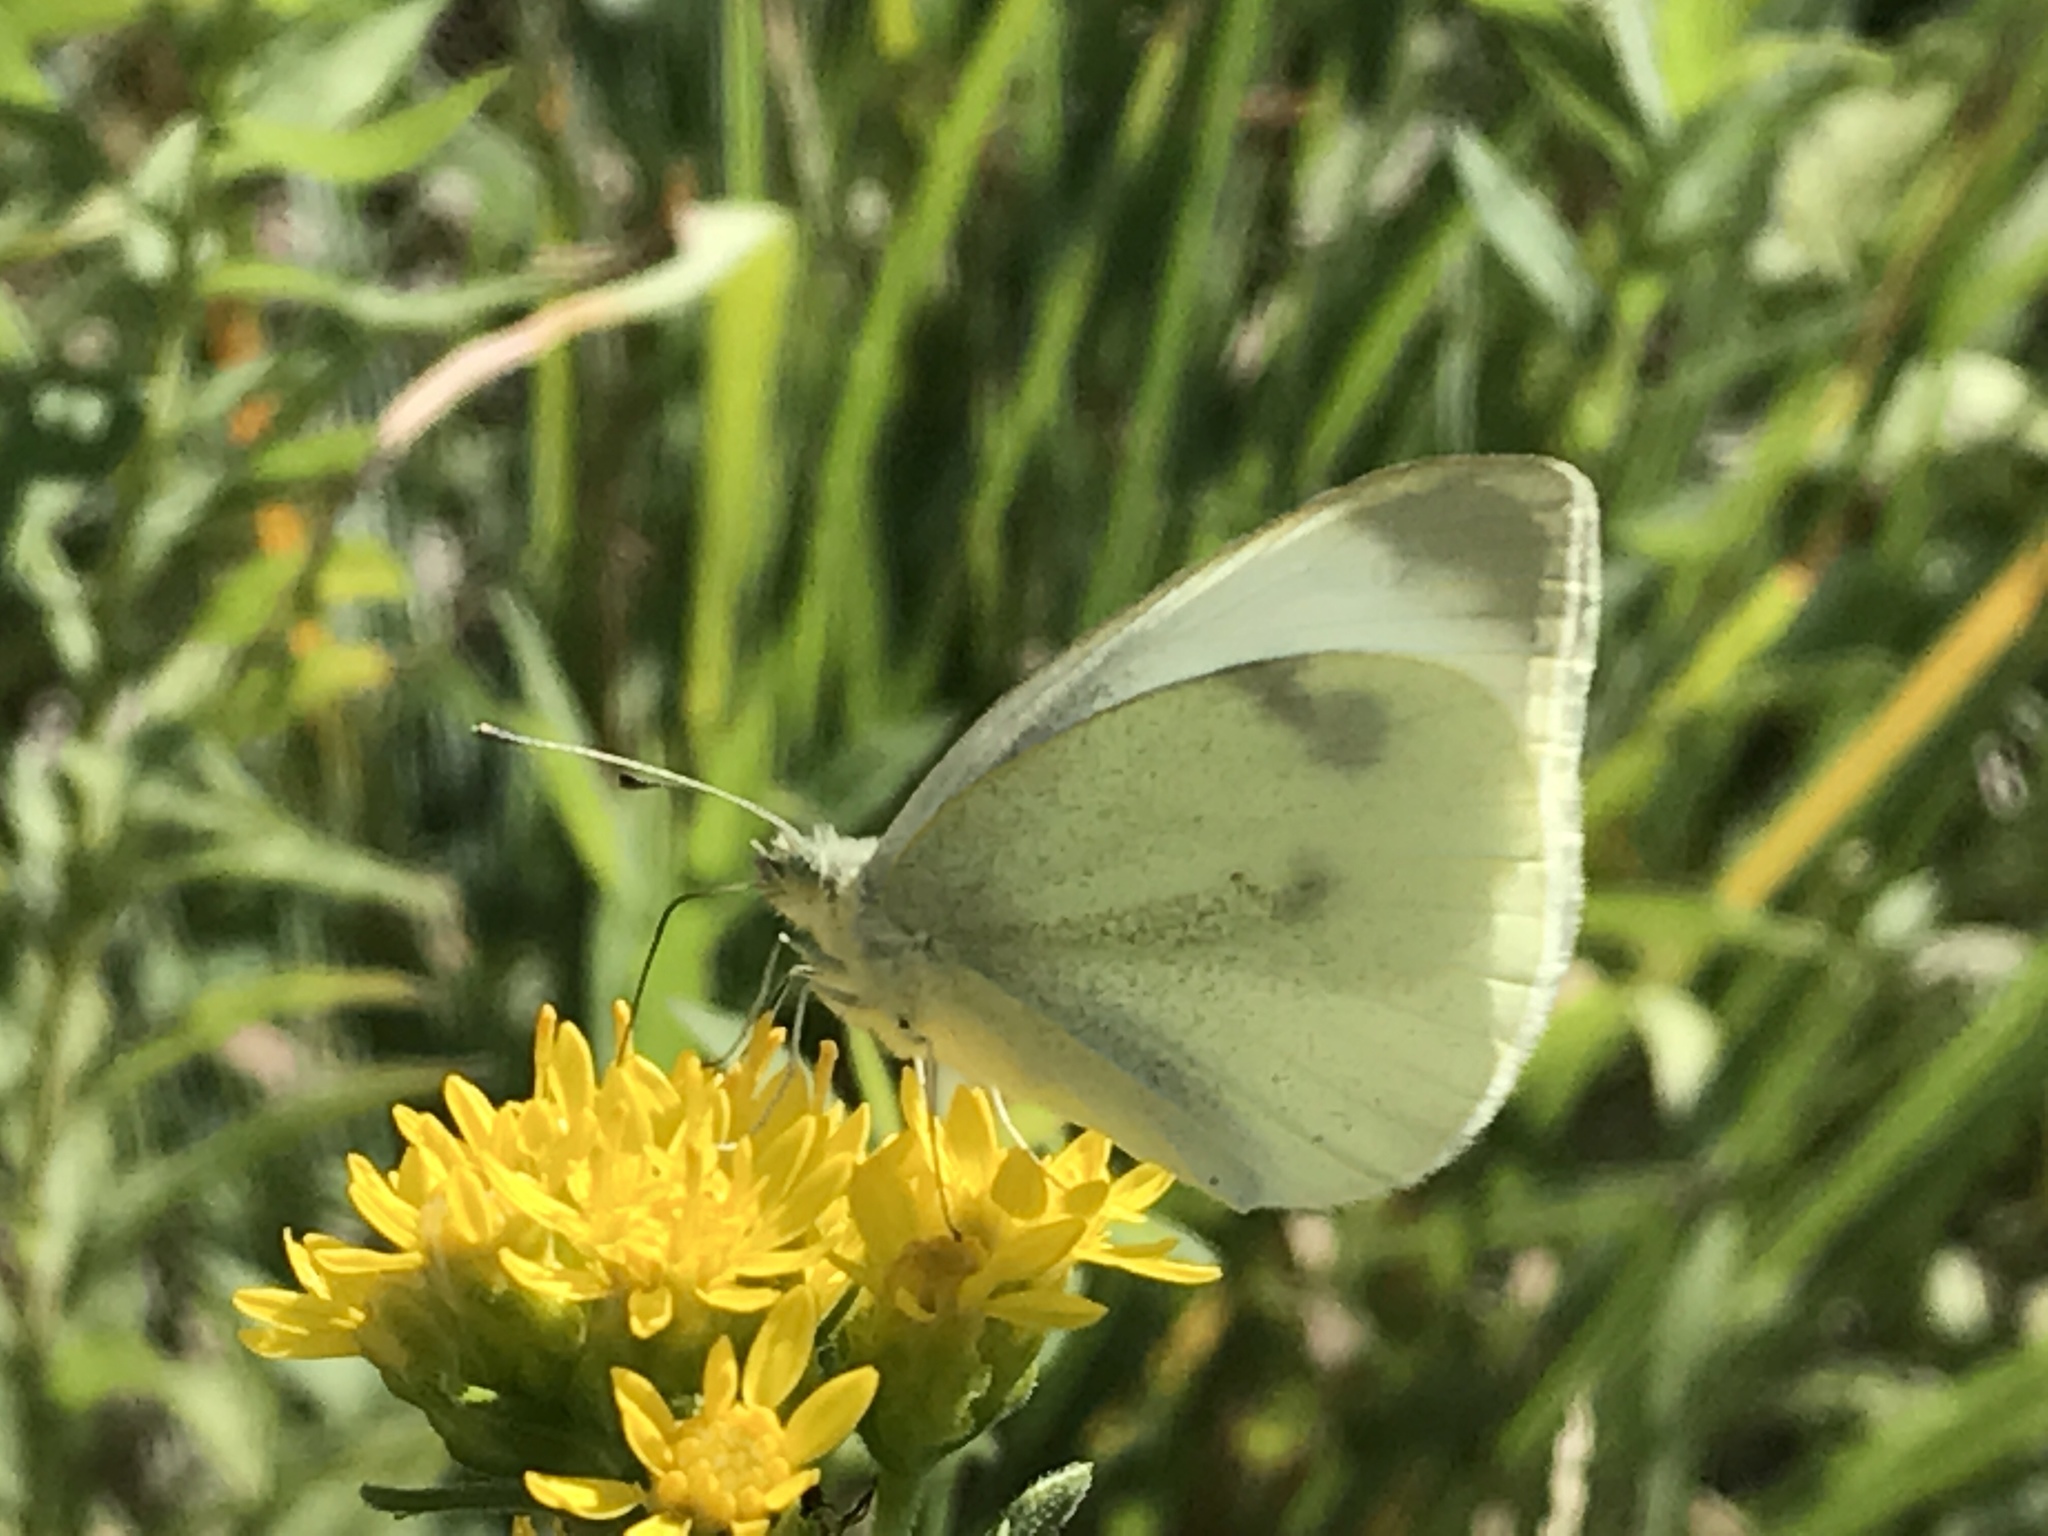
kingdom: Animalia
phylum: Arthropoda
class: Insecta
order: Lepidoptera
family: Pieridae
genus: Pieris
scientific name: Pieris rapae
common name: Small white
